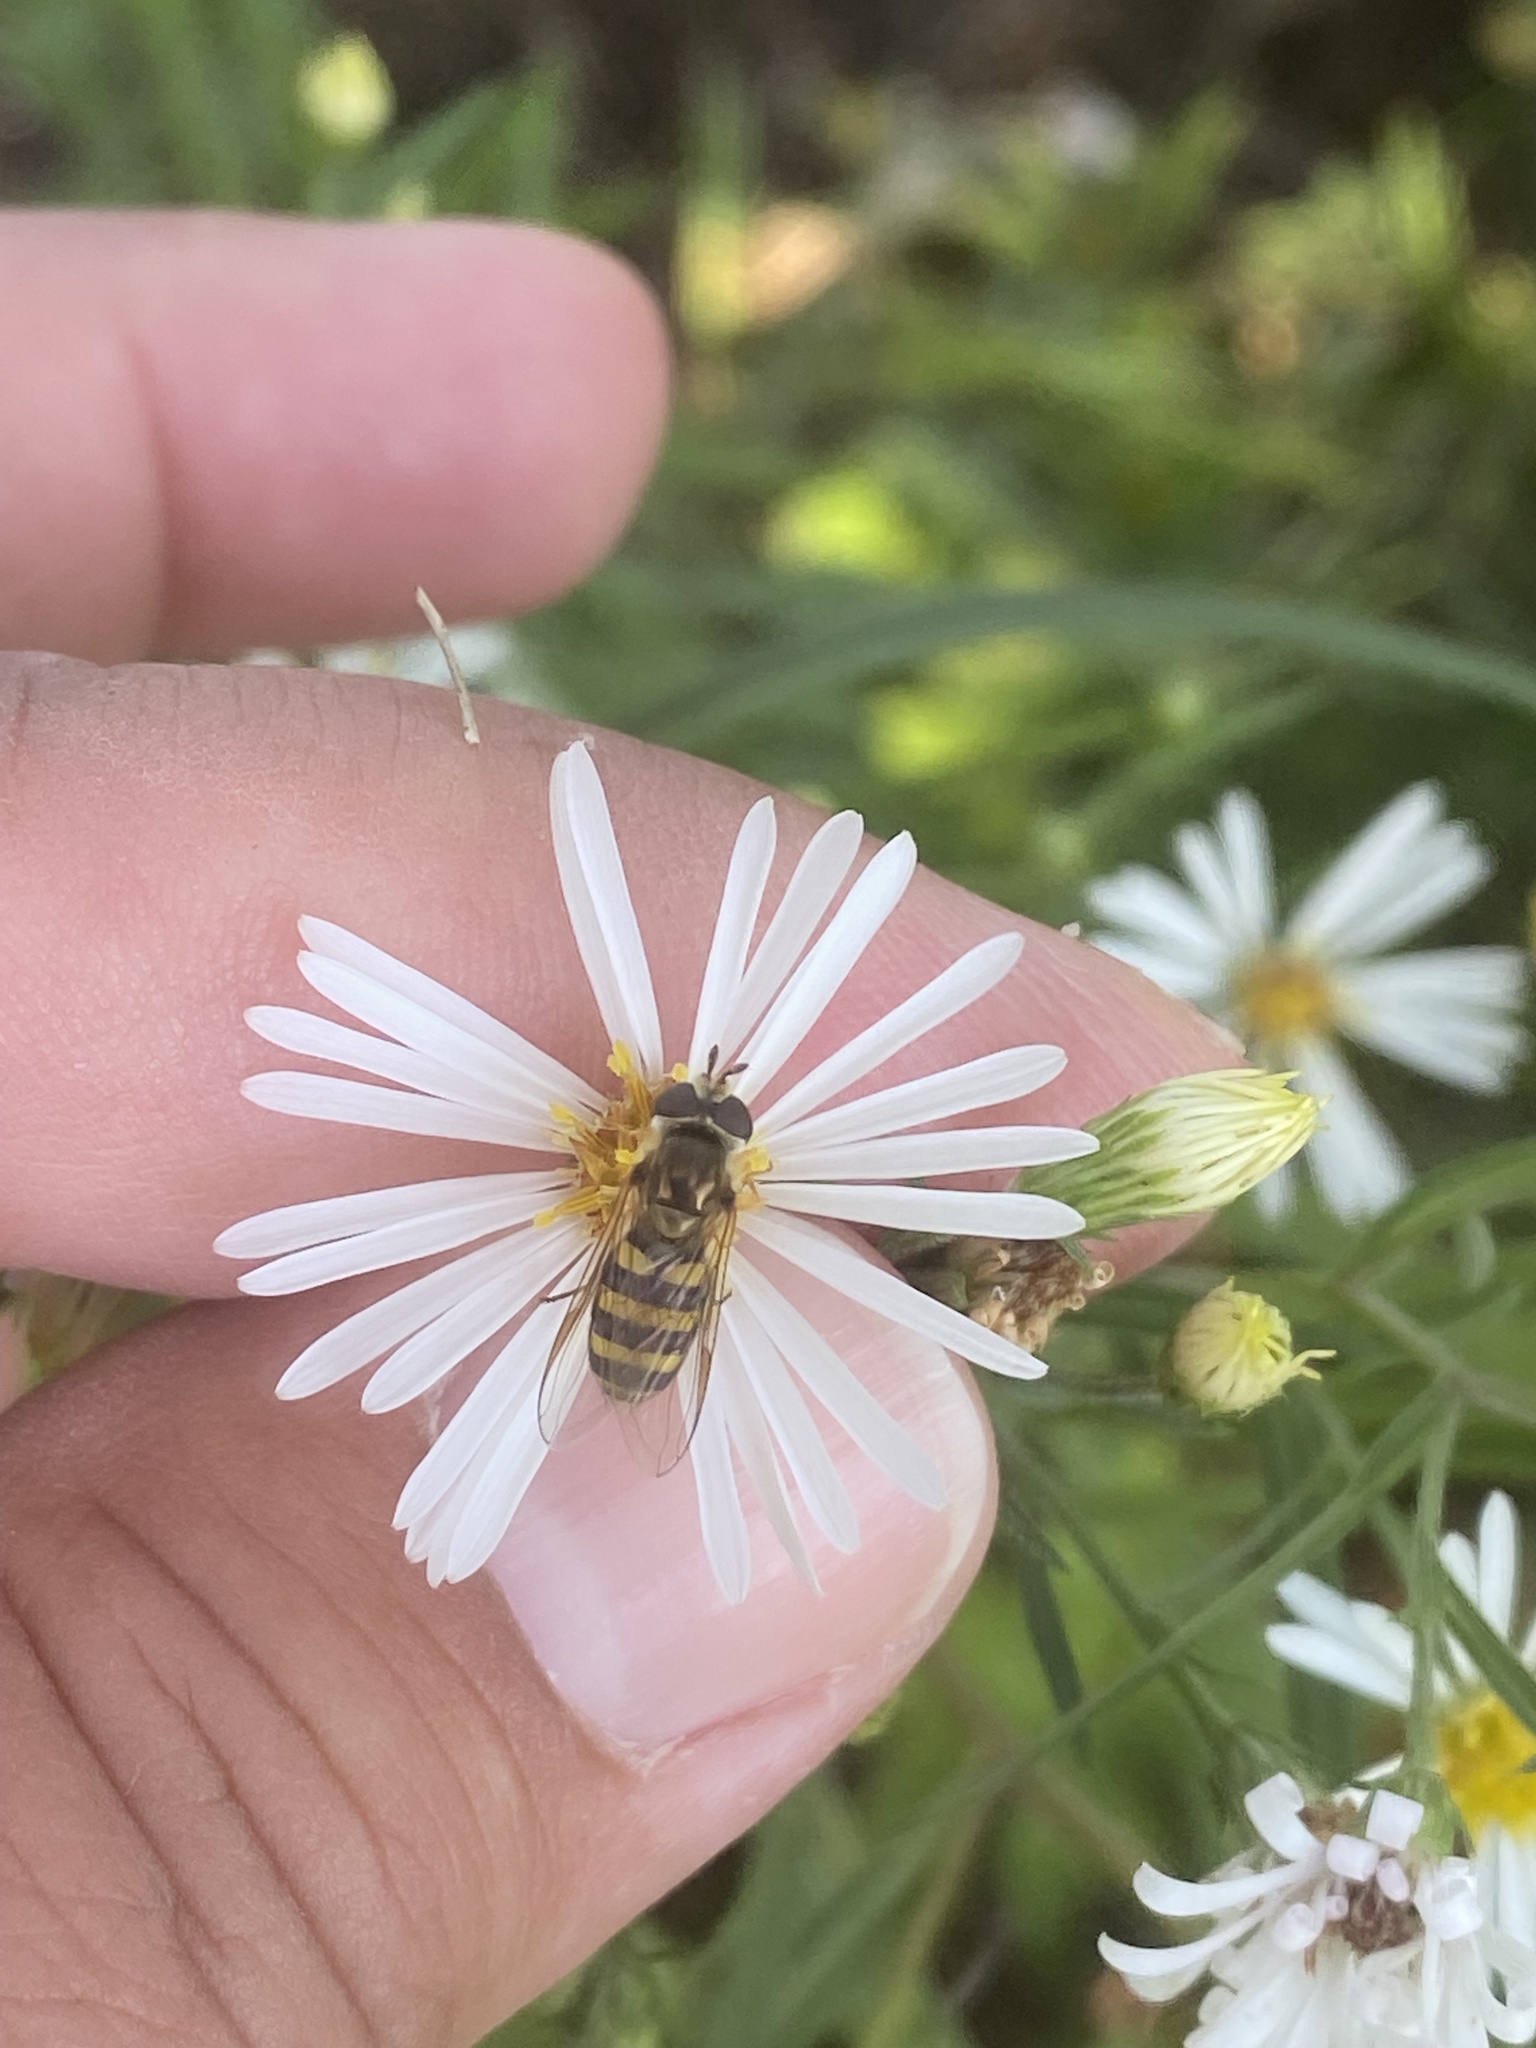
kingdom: Animalia
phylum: Arthropoda
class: Insecta
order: Diptera
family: Syrphidae
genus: Eupeodes
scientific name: Eupeodes
